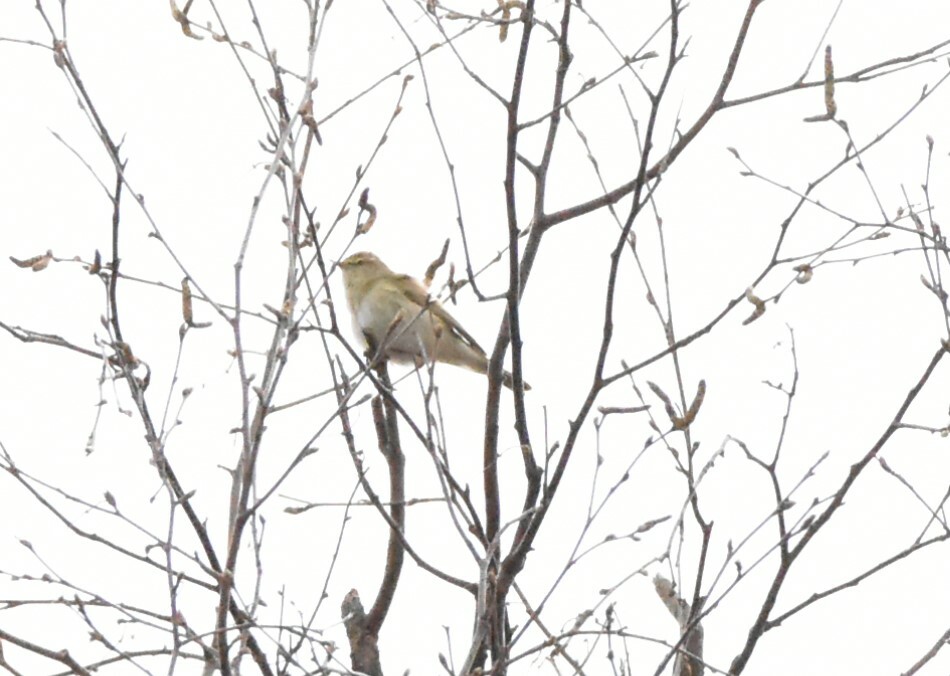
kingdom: Animalia
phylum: Chordata
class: Aves
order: Passeriformes
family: Phylloscopidae
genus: Phylloscopus
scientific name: Phylloscopus collybita
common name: Common chiffchaff
